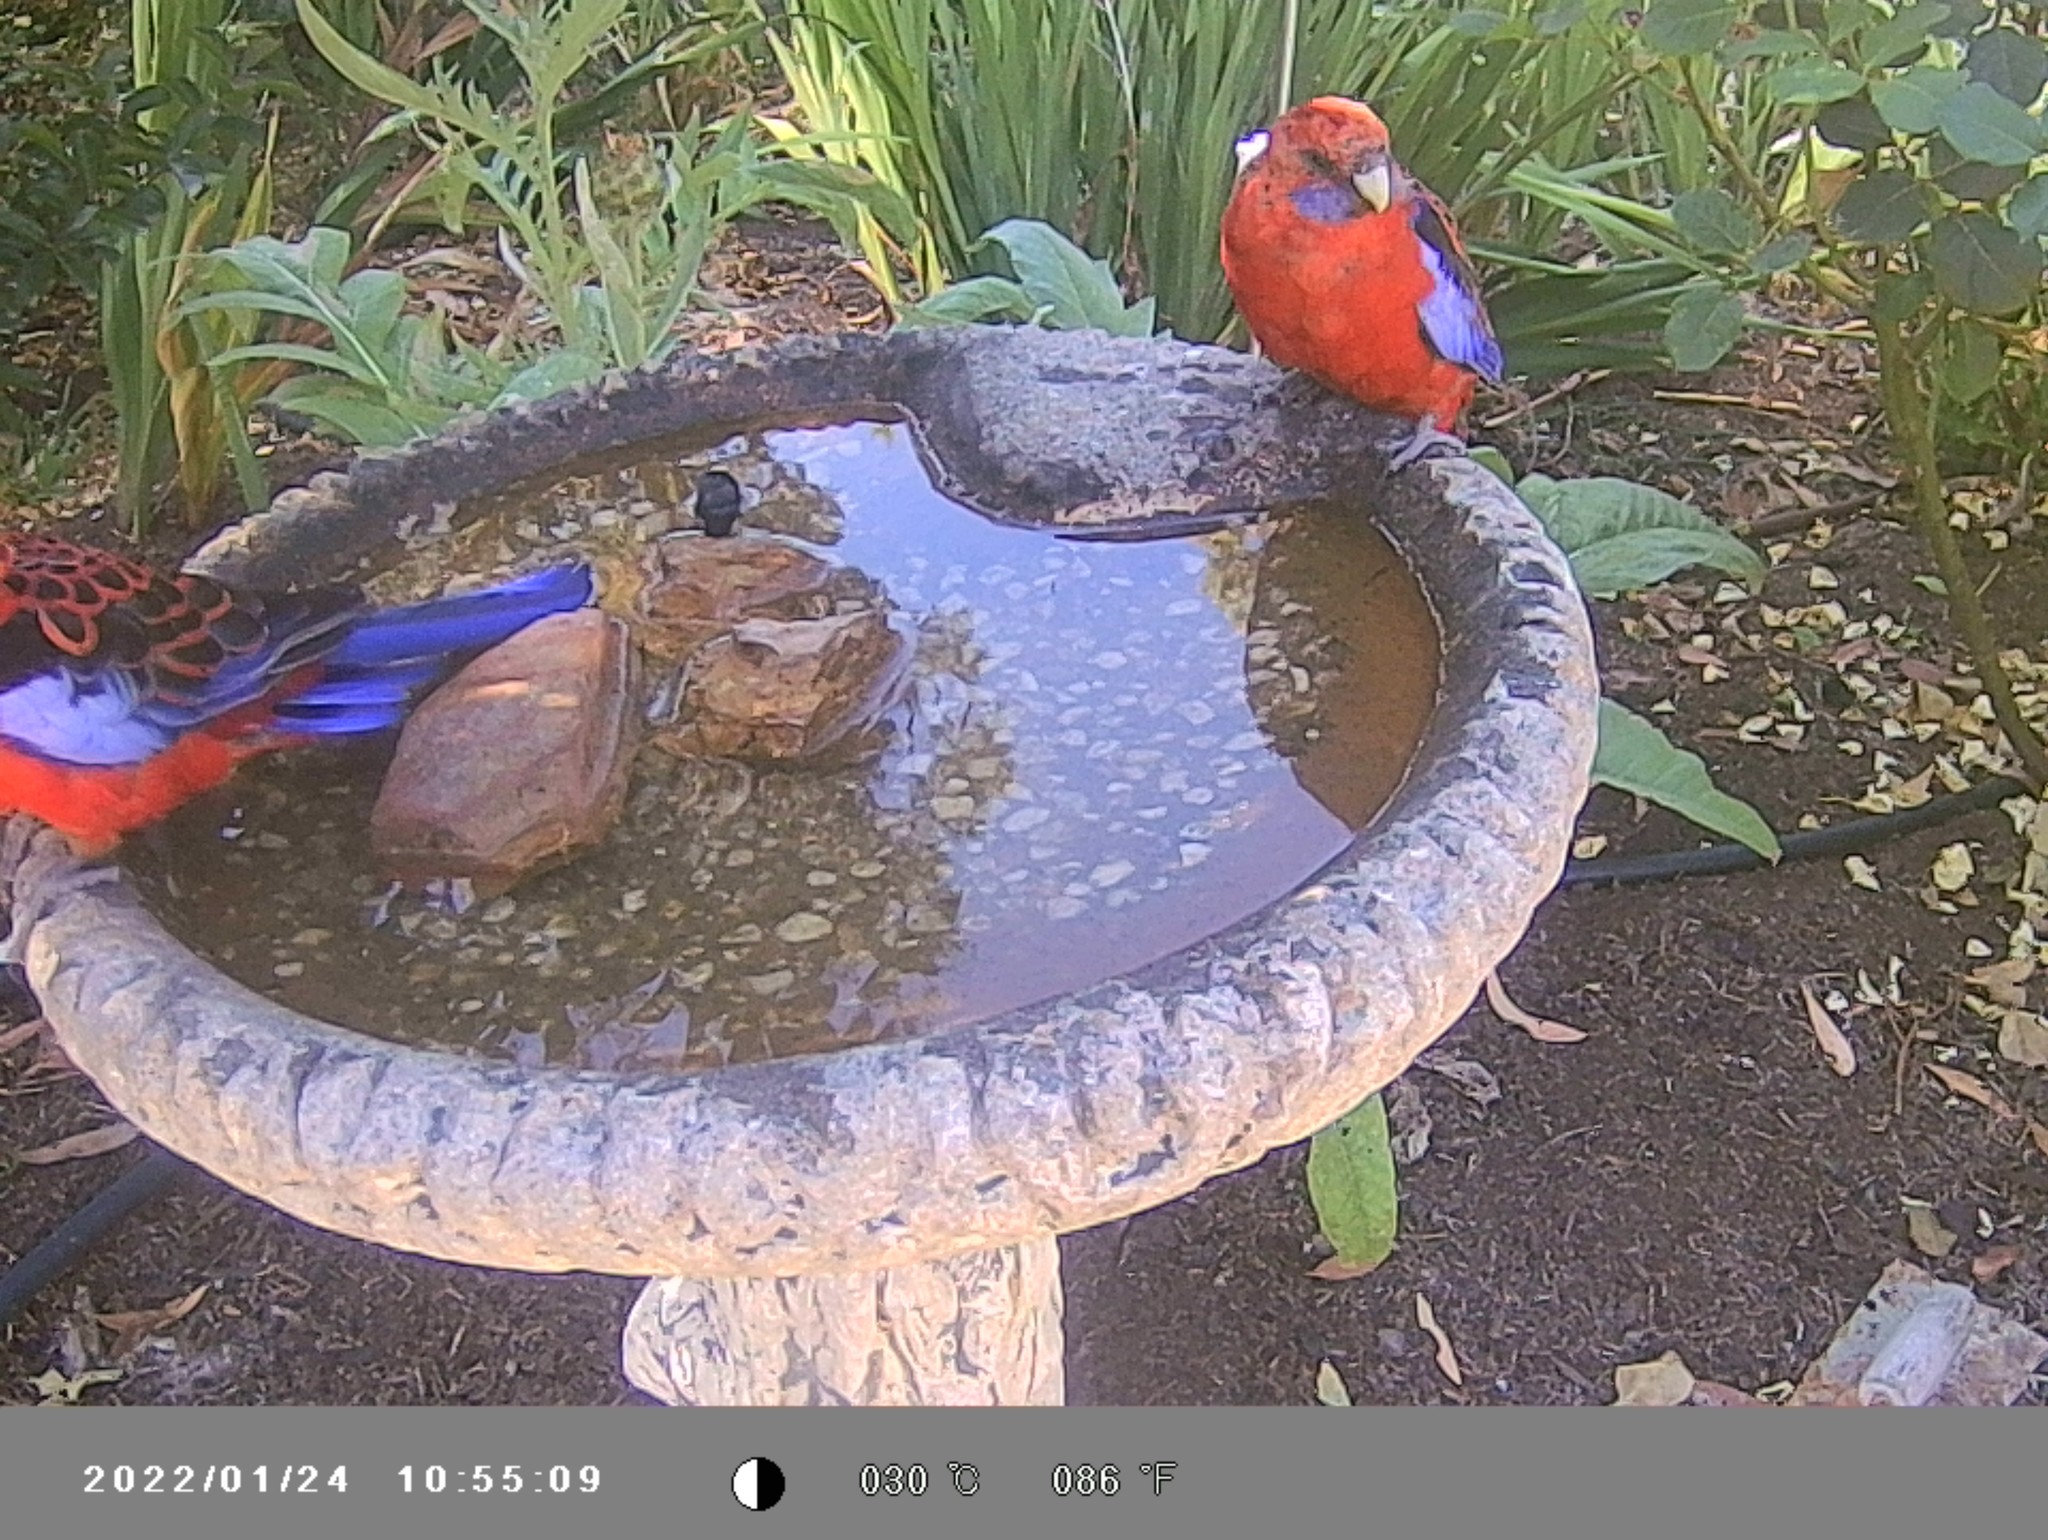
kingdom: Animalia
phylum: Chordata
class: Aves
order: Psittaciformes
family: Psittacidae
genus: Platycercus
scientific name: Platycercus elegans
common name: Crimson rosella
